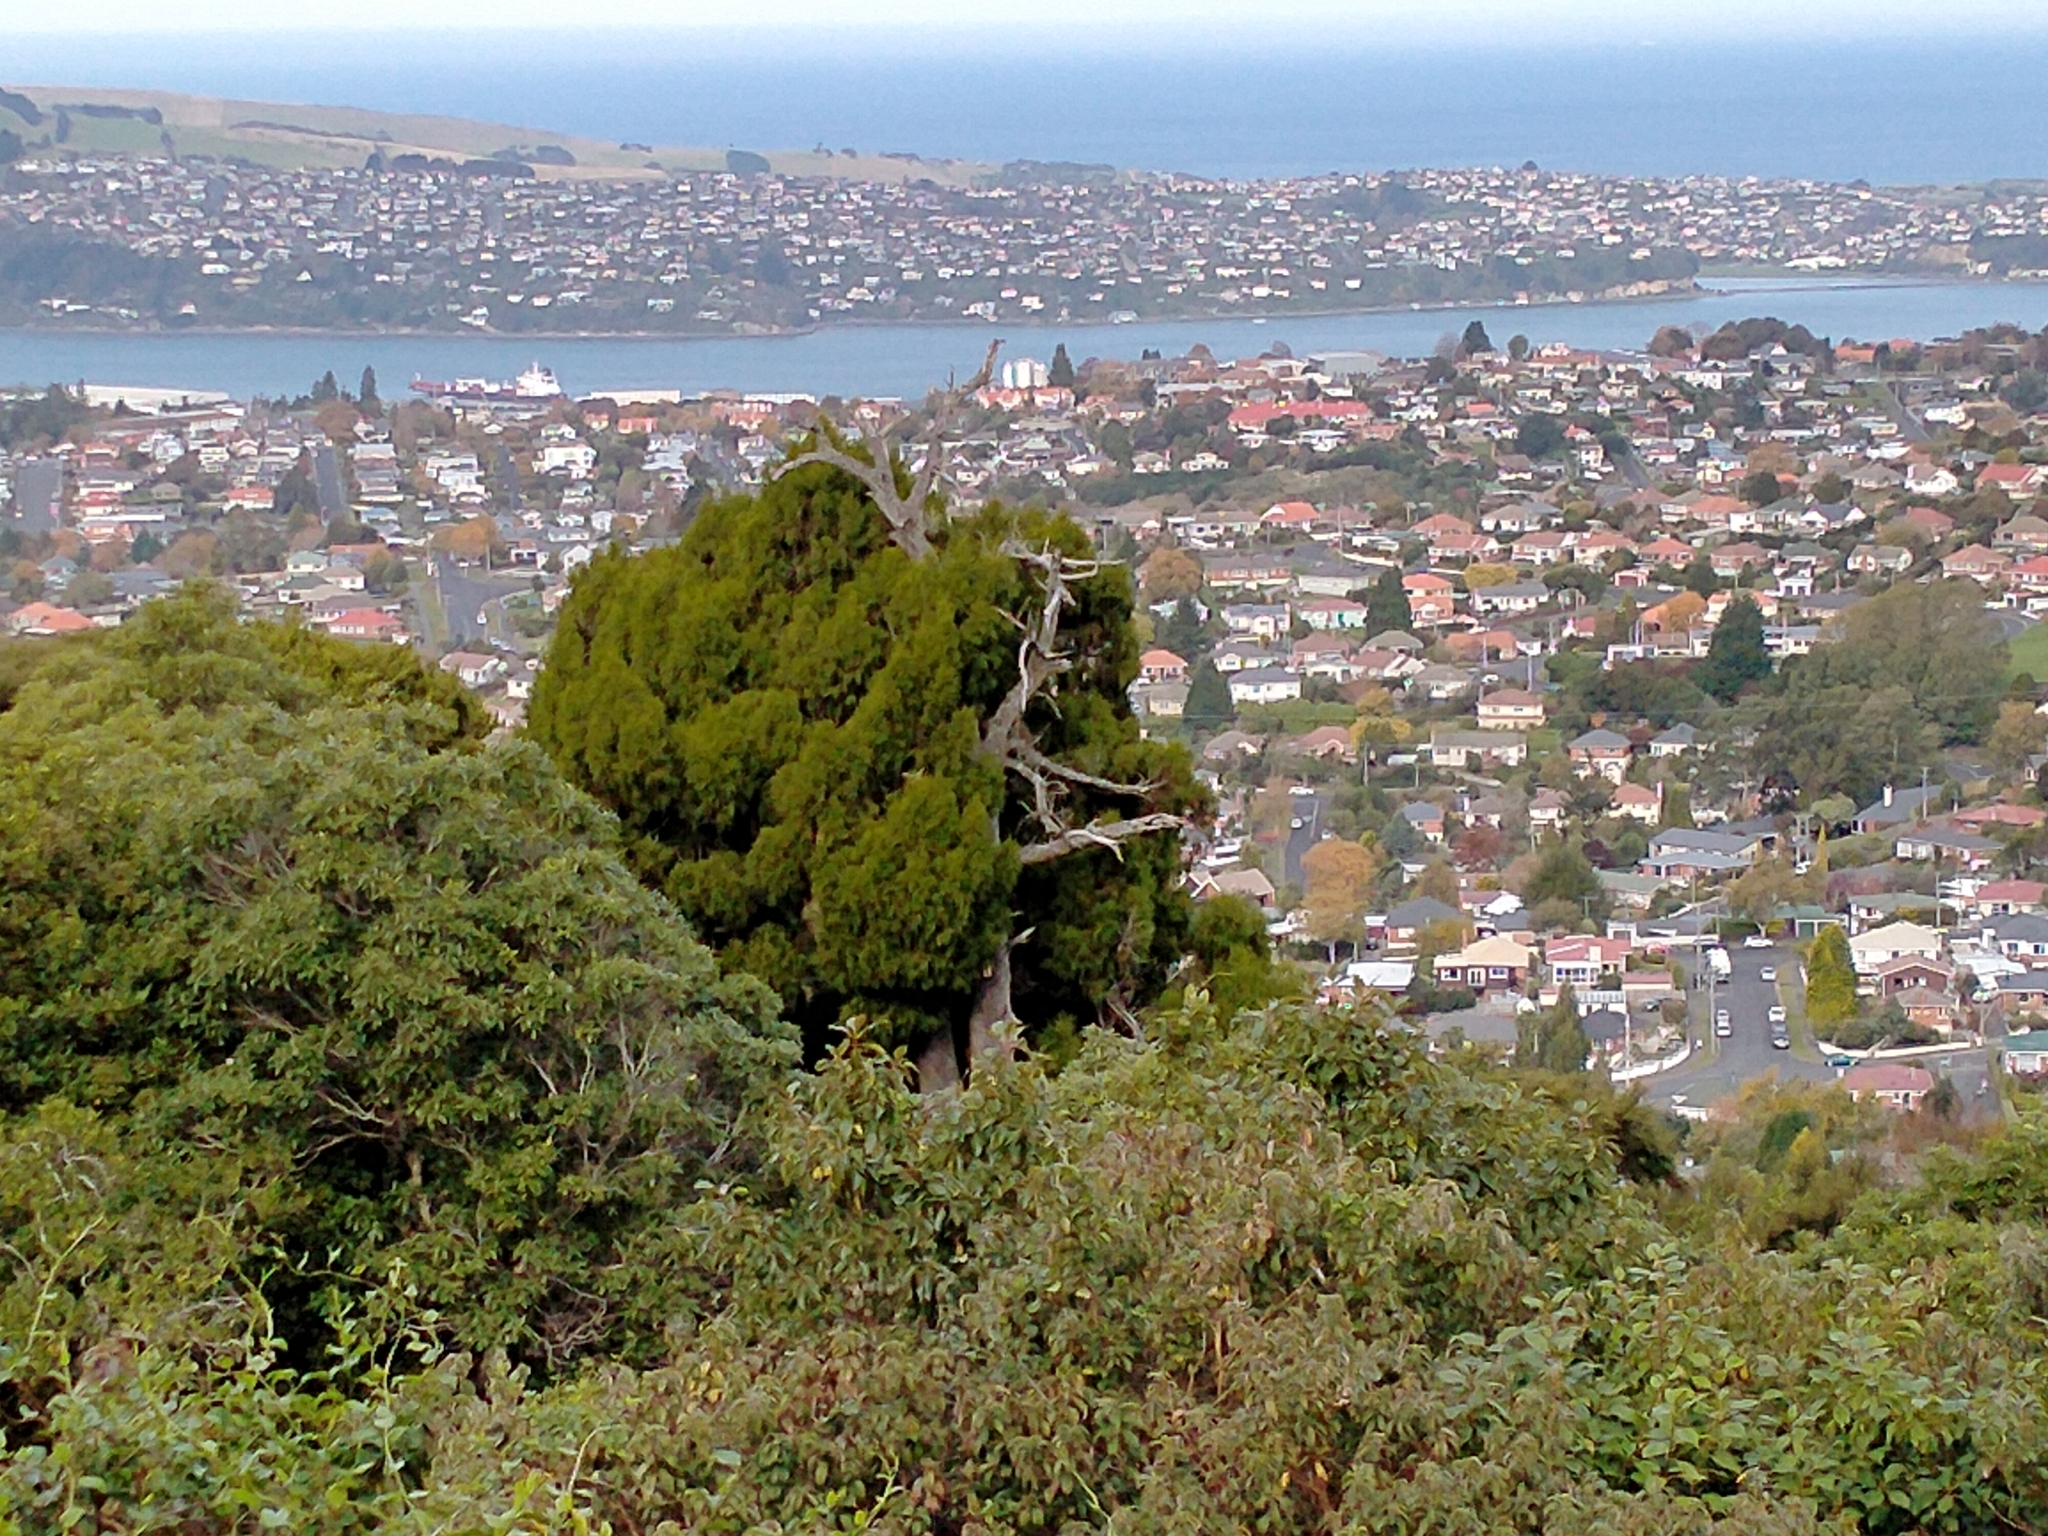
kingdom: Plantae
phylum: Tracheophyta
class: Pinopsida
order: Pinales
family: Podocarpaceae
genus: Dacrydium
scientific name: Dacrydium cupressinum
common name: Red pine
